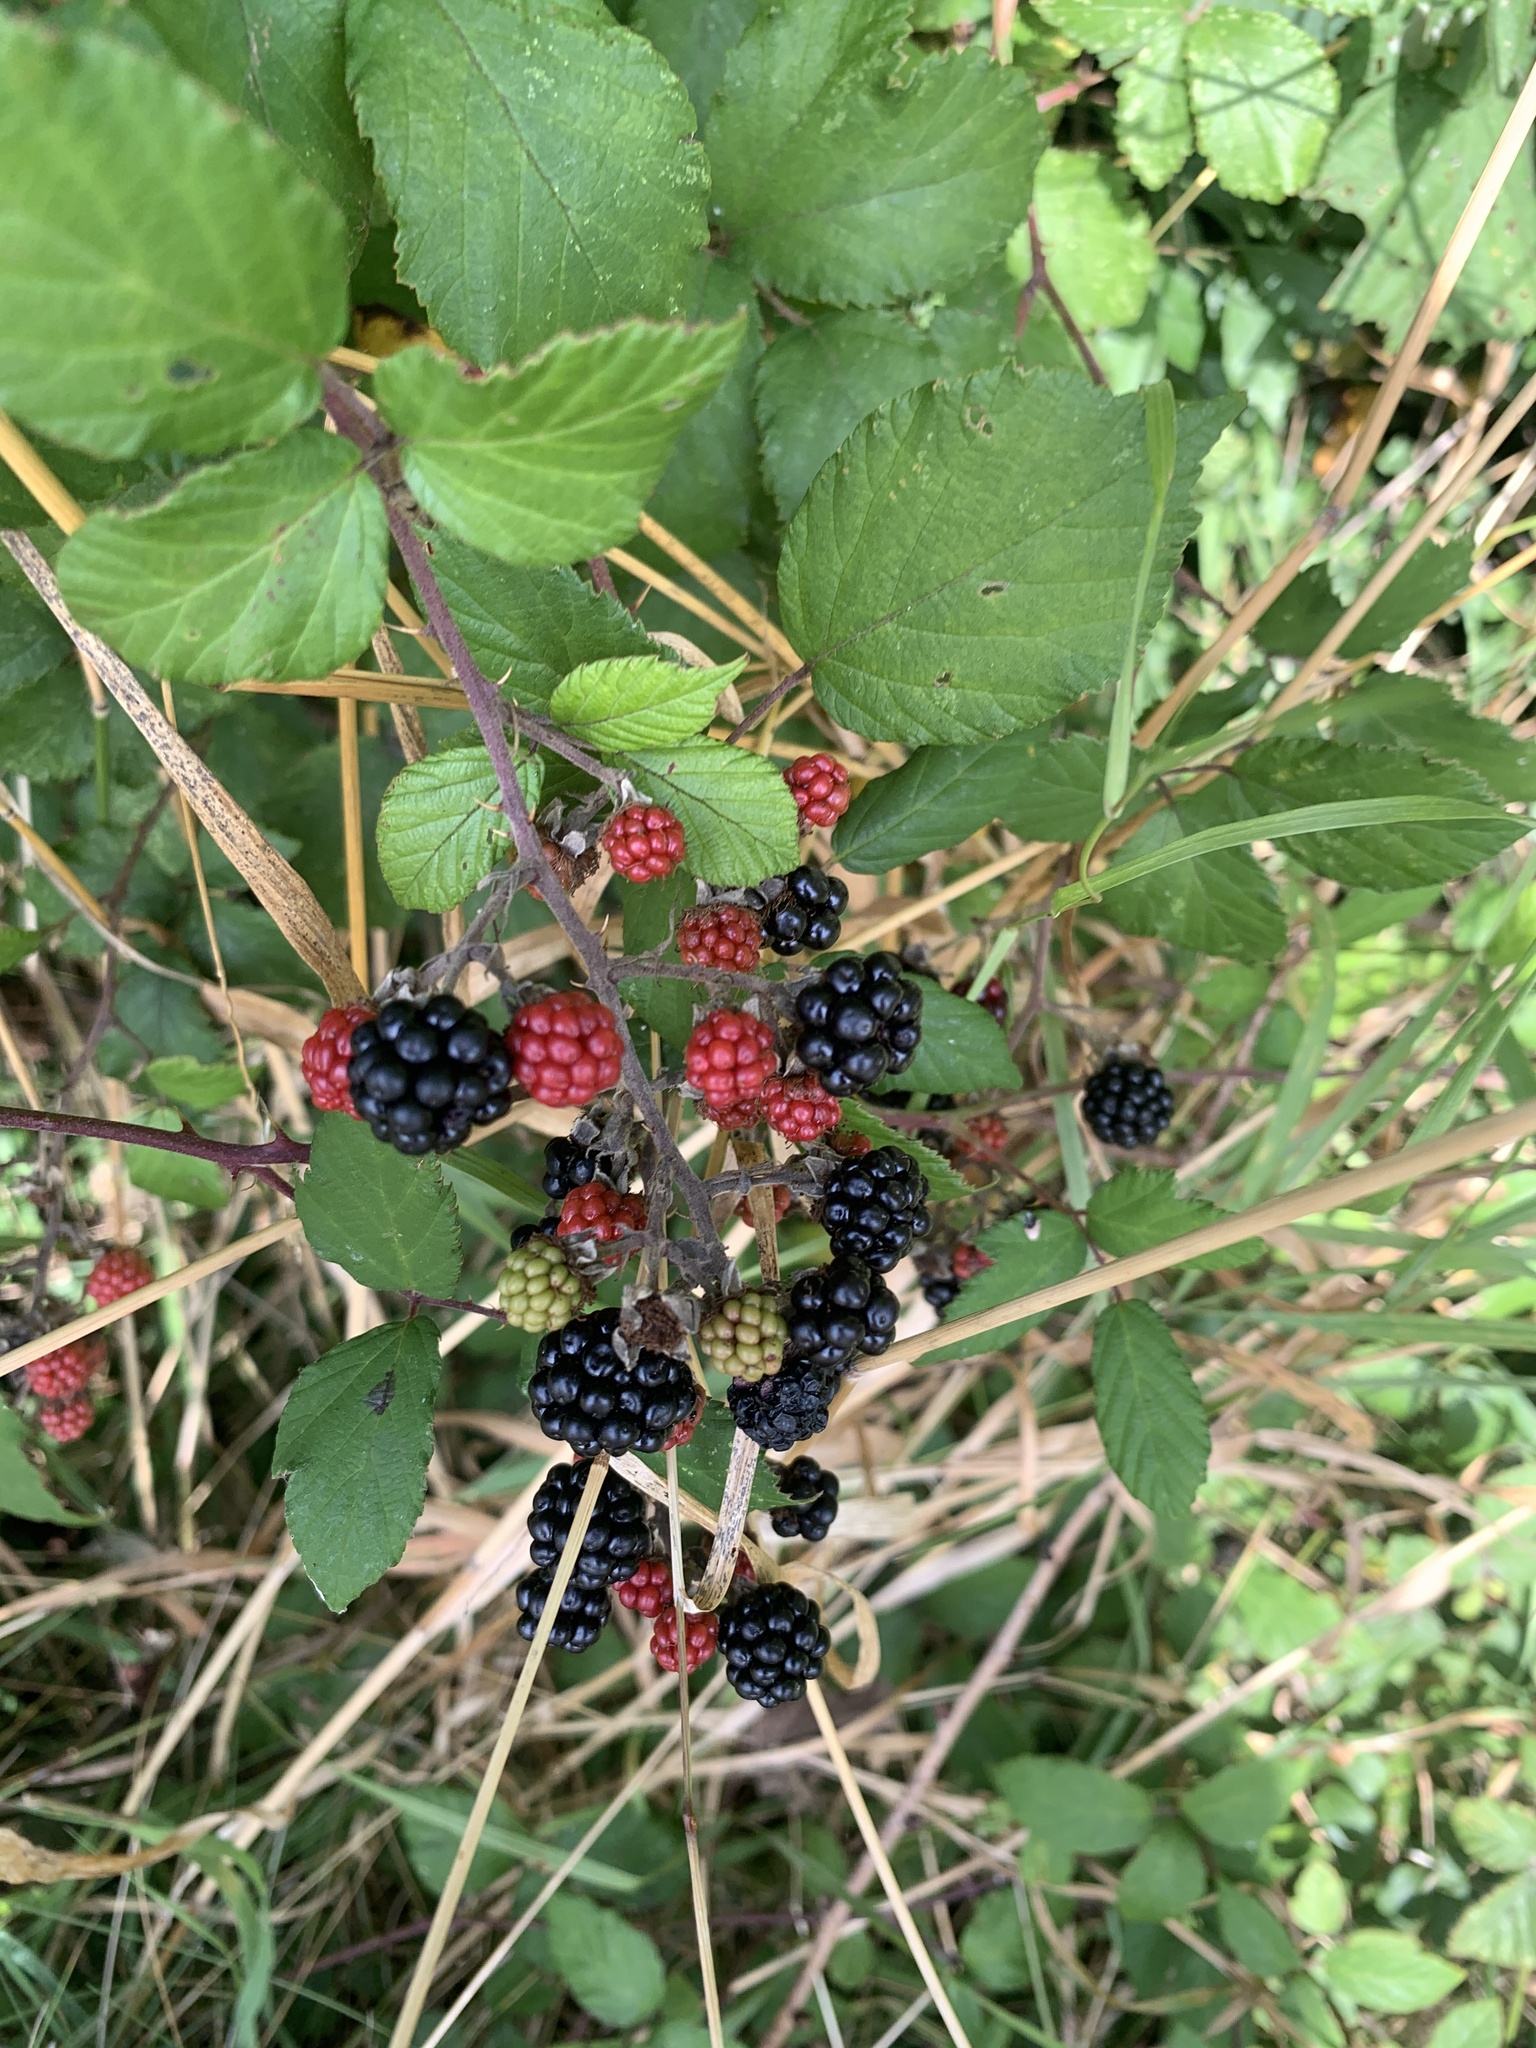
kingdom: Plantae
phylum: Tracheophyta
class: Magnoliopsida
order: Rosales
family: Rosaceae
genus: Rubus
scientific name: Rubus fruticosus
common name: Blackberry, bramble
